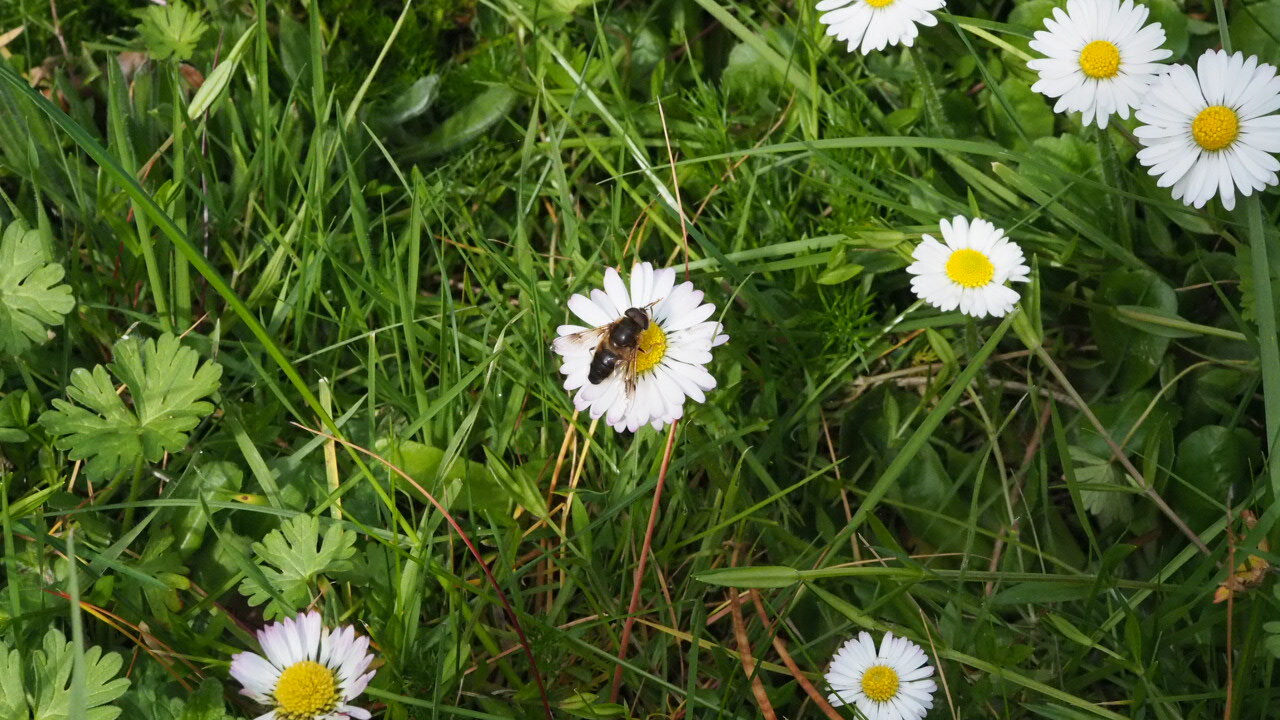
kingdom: Animalia
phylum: Arthropoda
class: Insecta
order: Diptera
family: Syrphidae
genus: Eristalis
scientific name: Eristalis pertinax
